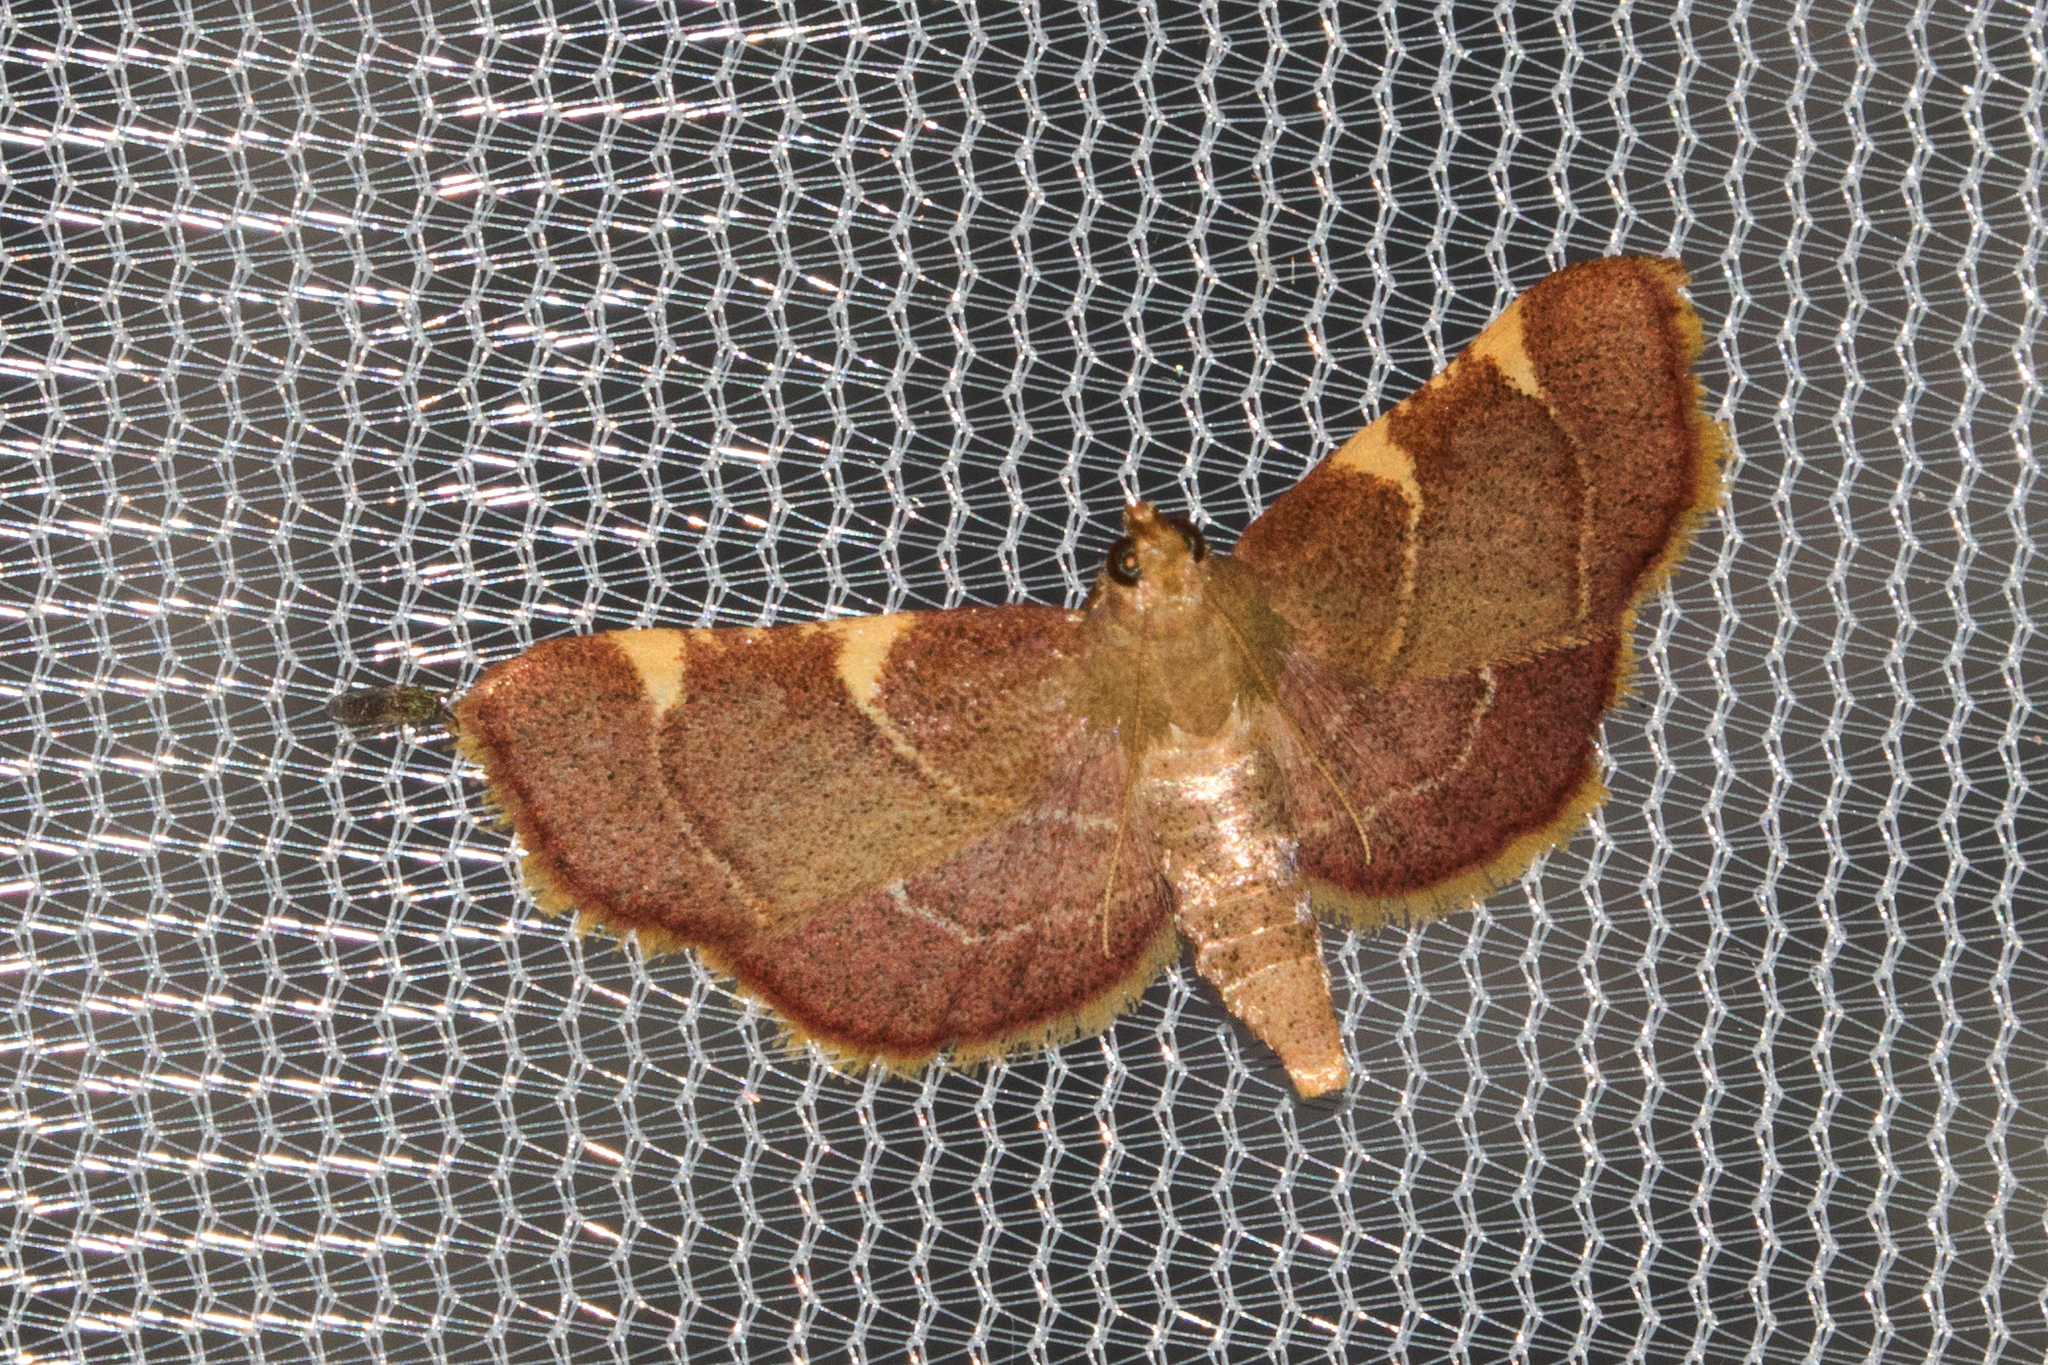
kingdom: Animalia
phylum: Arthropoda
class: Insecta
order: Lepidoptera
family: Pyralidae
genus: Hypsopygia
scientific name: Hypsopygia olinalis
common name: Yellow-fringed dolichomia moth
